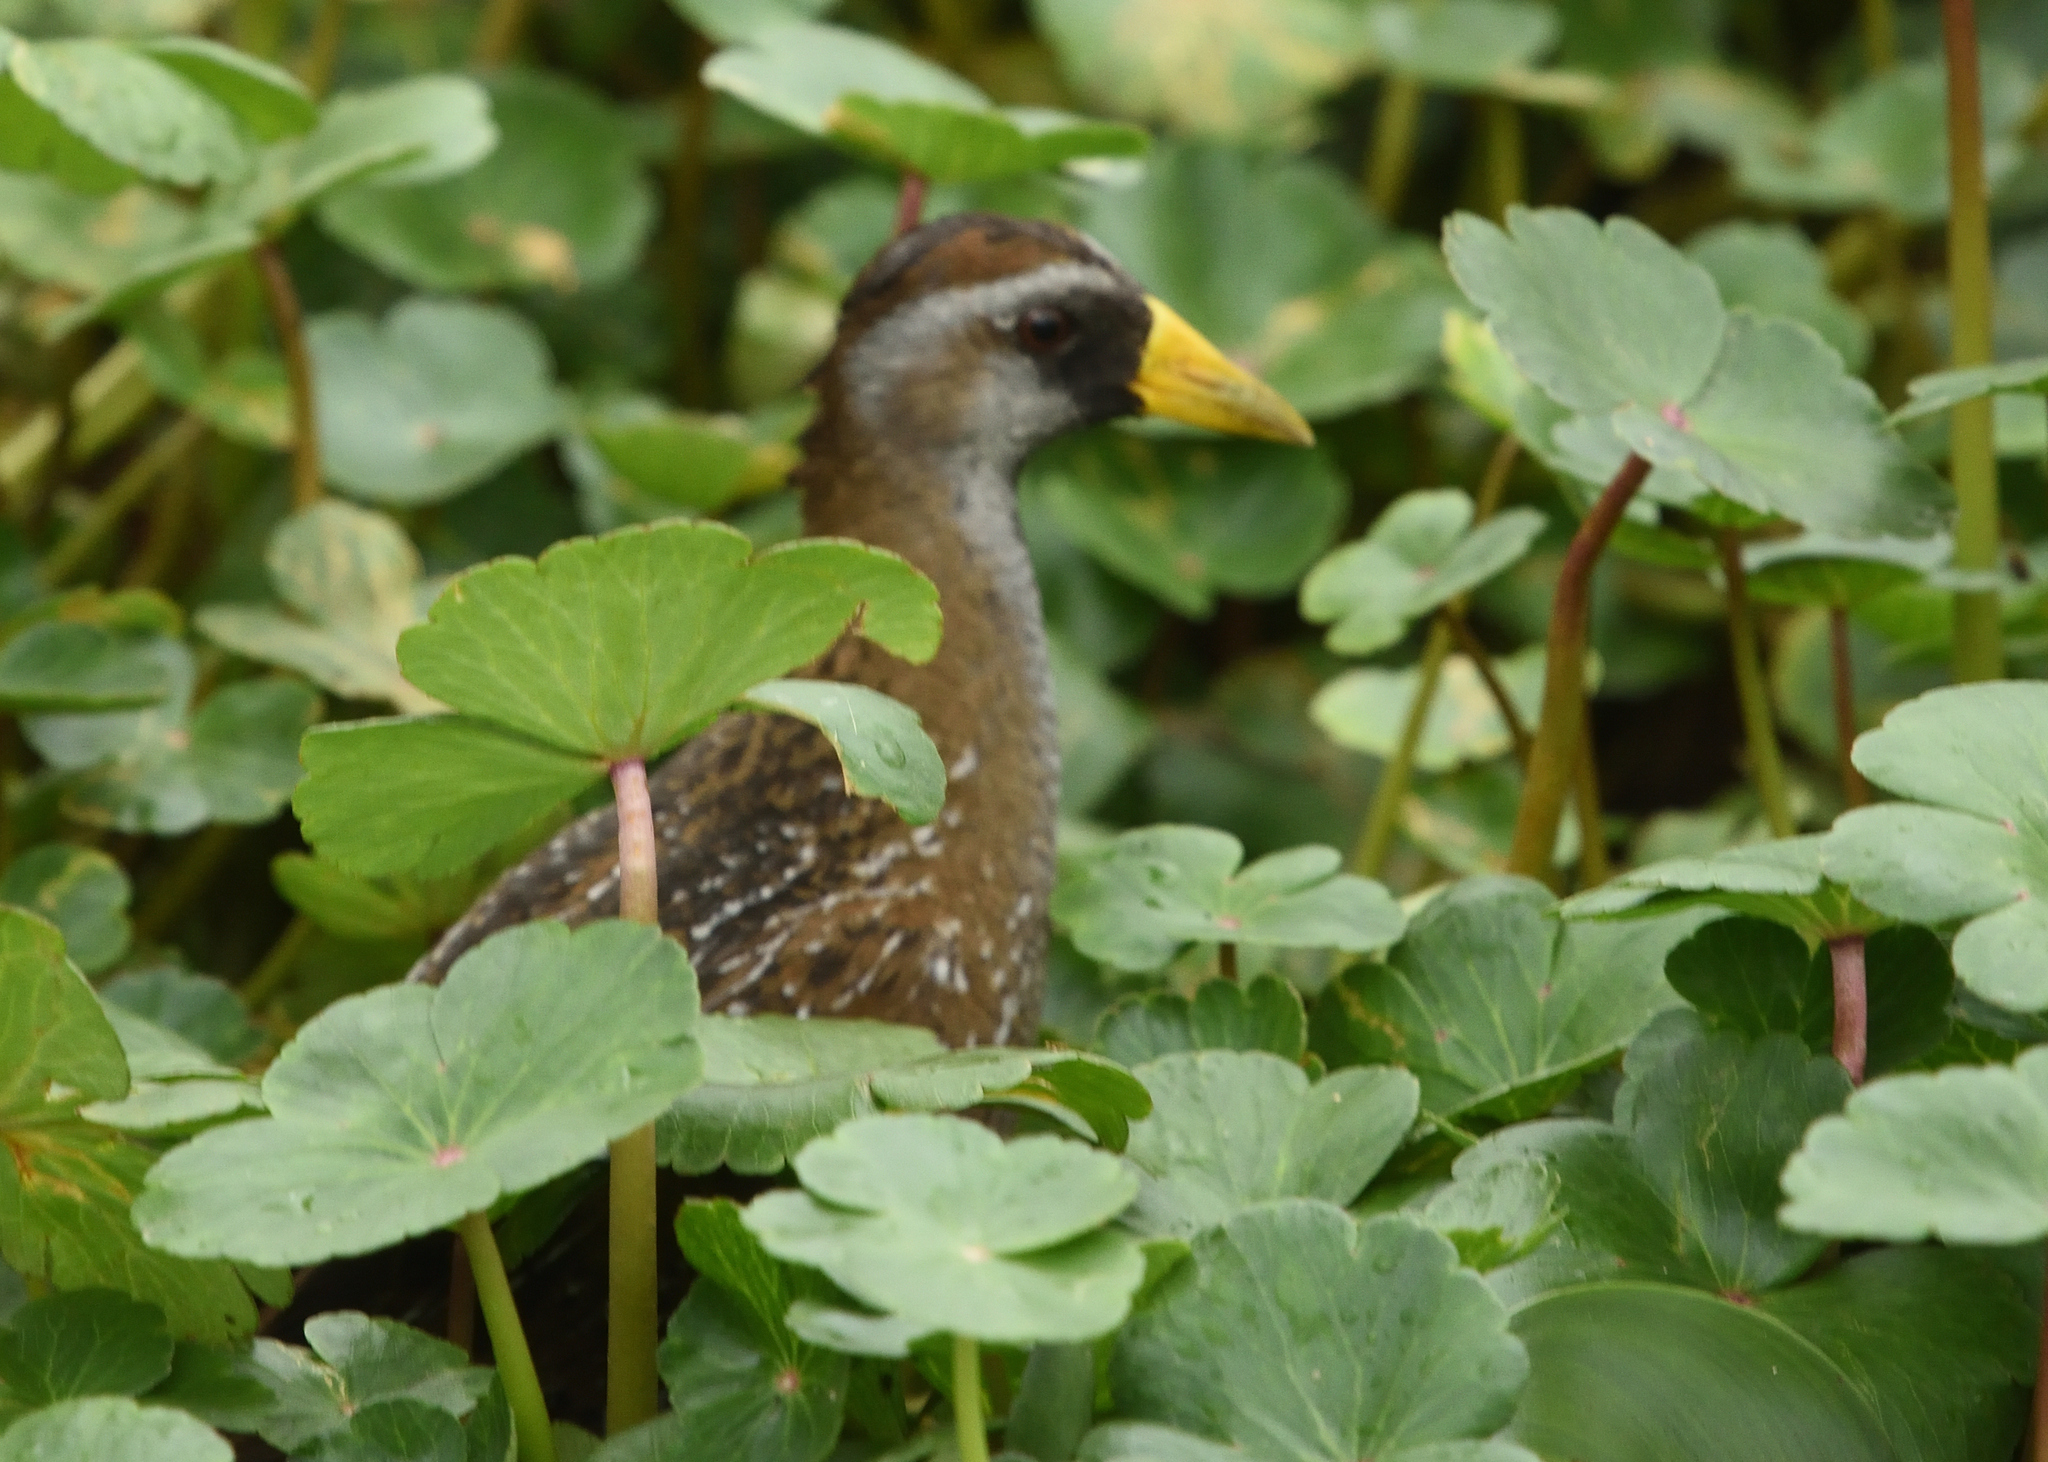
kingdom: Animalia
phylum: Chordata
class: Aves
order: Gruiformes
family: Rallidae
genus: Porzana
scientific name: Porzana carolina
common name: Sora
